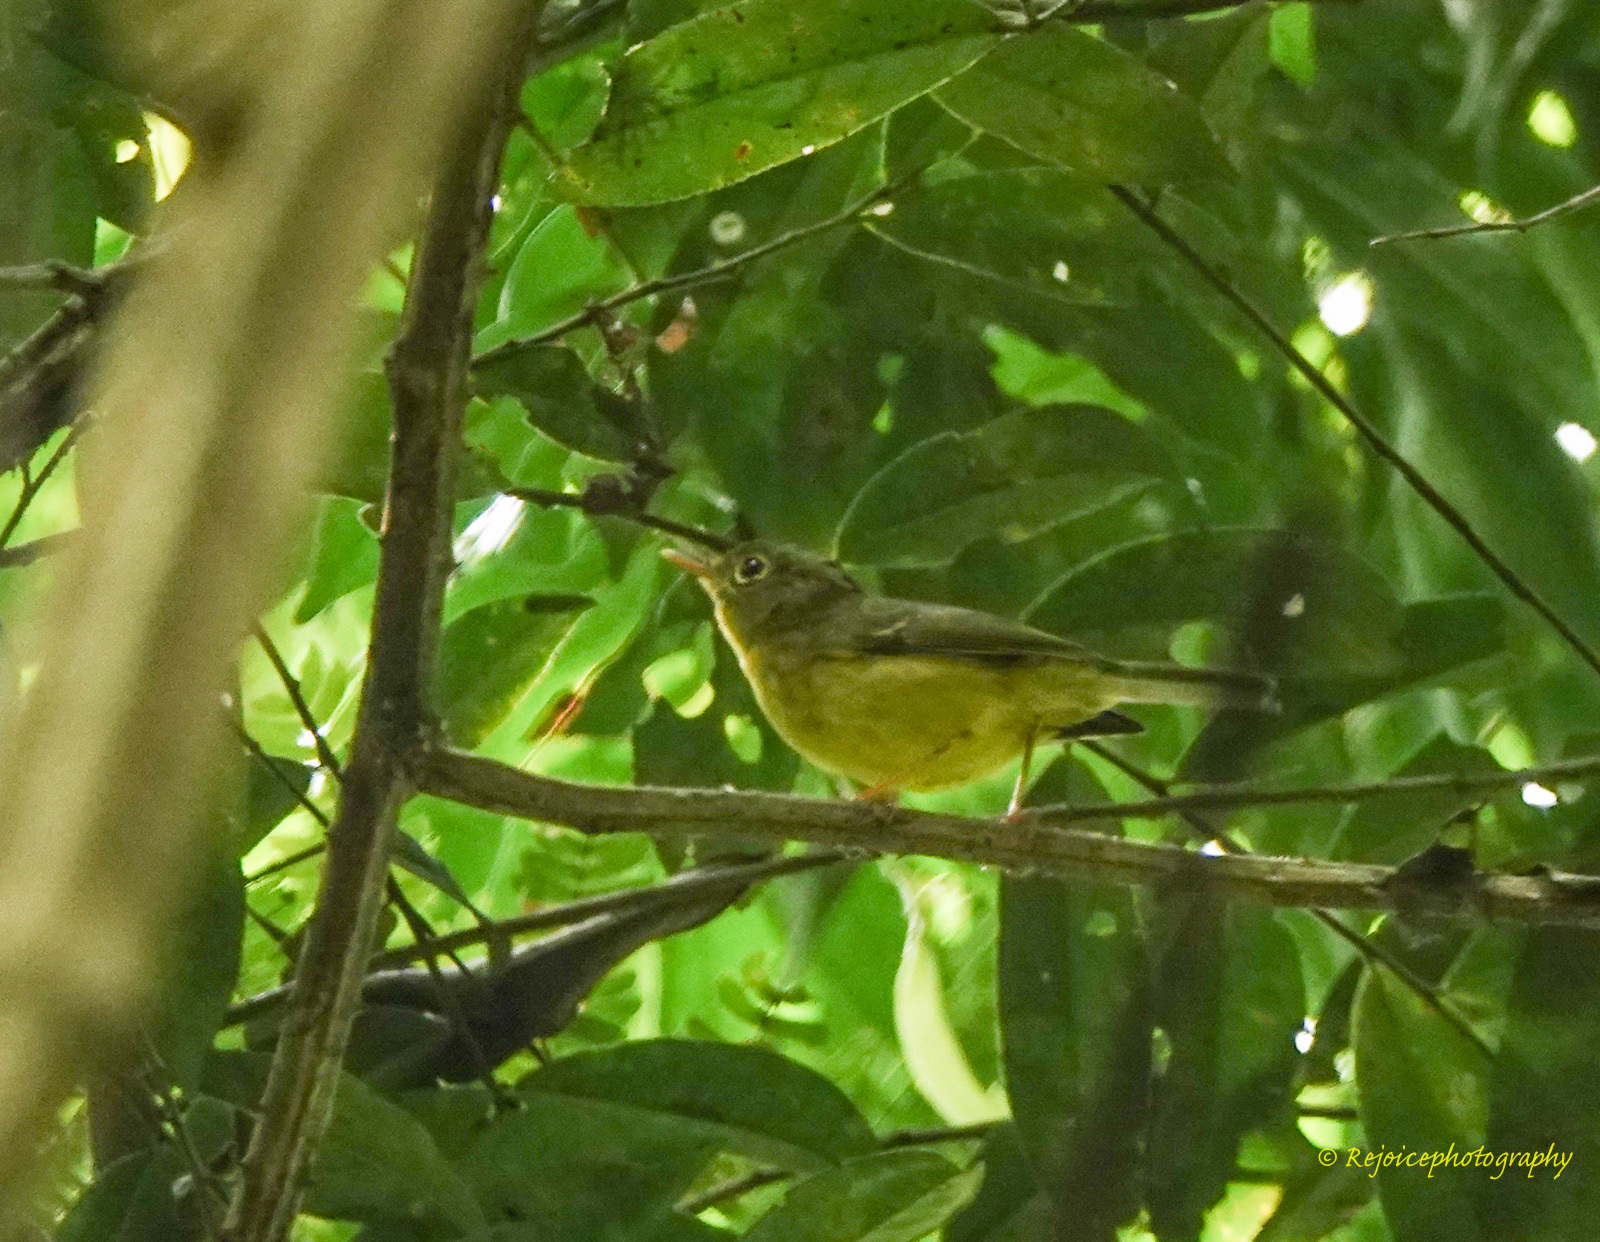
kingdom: Animalia
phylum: Chordata
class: Aves
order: Passeriformes
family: Phylloscopidae
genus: Seicercus
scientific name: Seicercus burkii
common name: Green-crowned warbler
